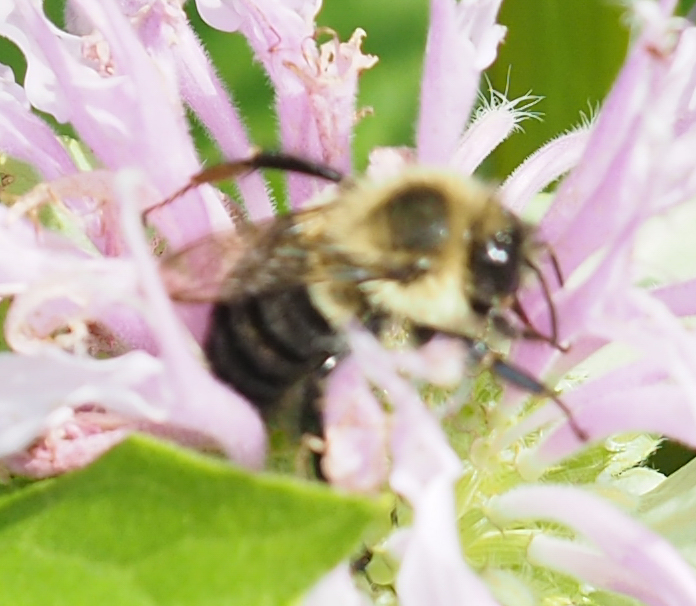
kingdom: Animalia
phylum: Arthropoda
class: Insecta
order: Hymenoptera
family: Apidae
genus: Bombus
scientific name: Bombus impatiens
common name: Common eastern bumble bee
